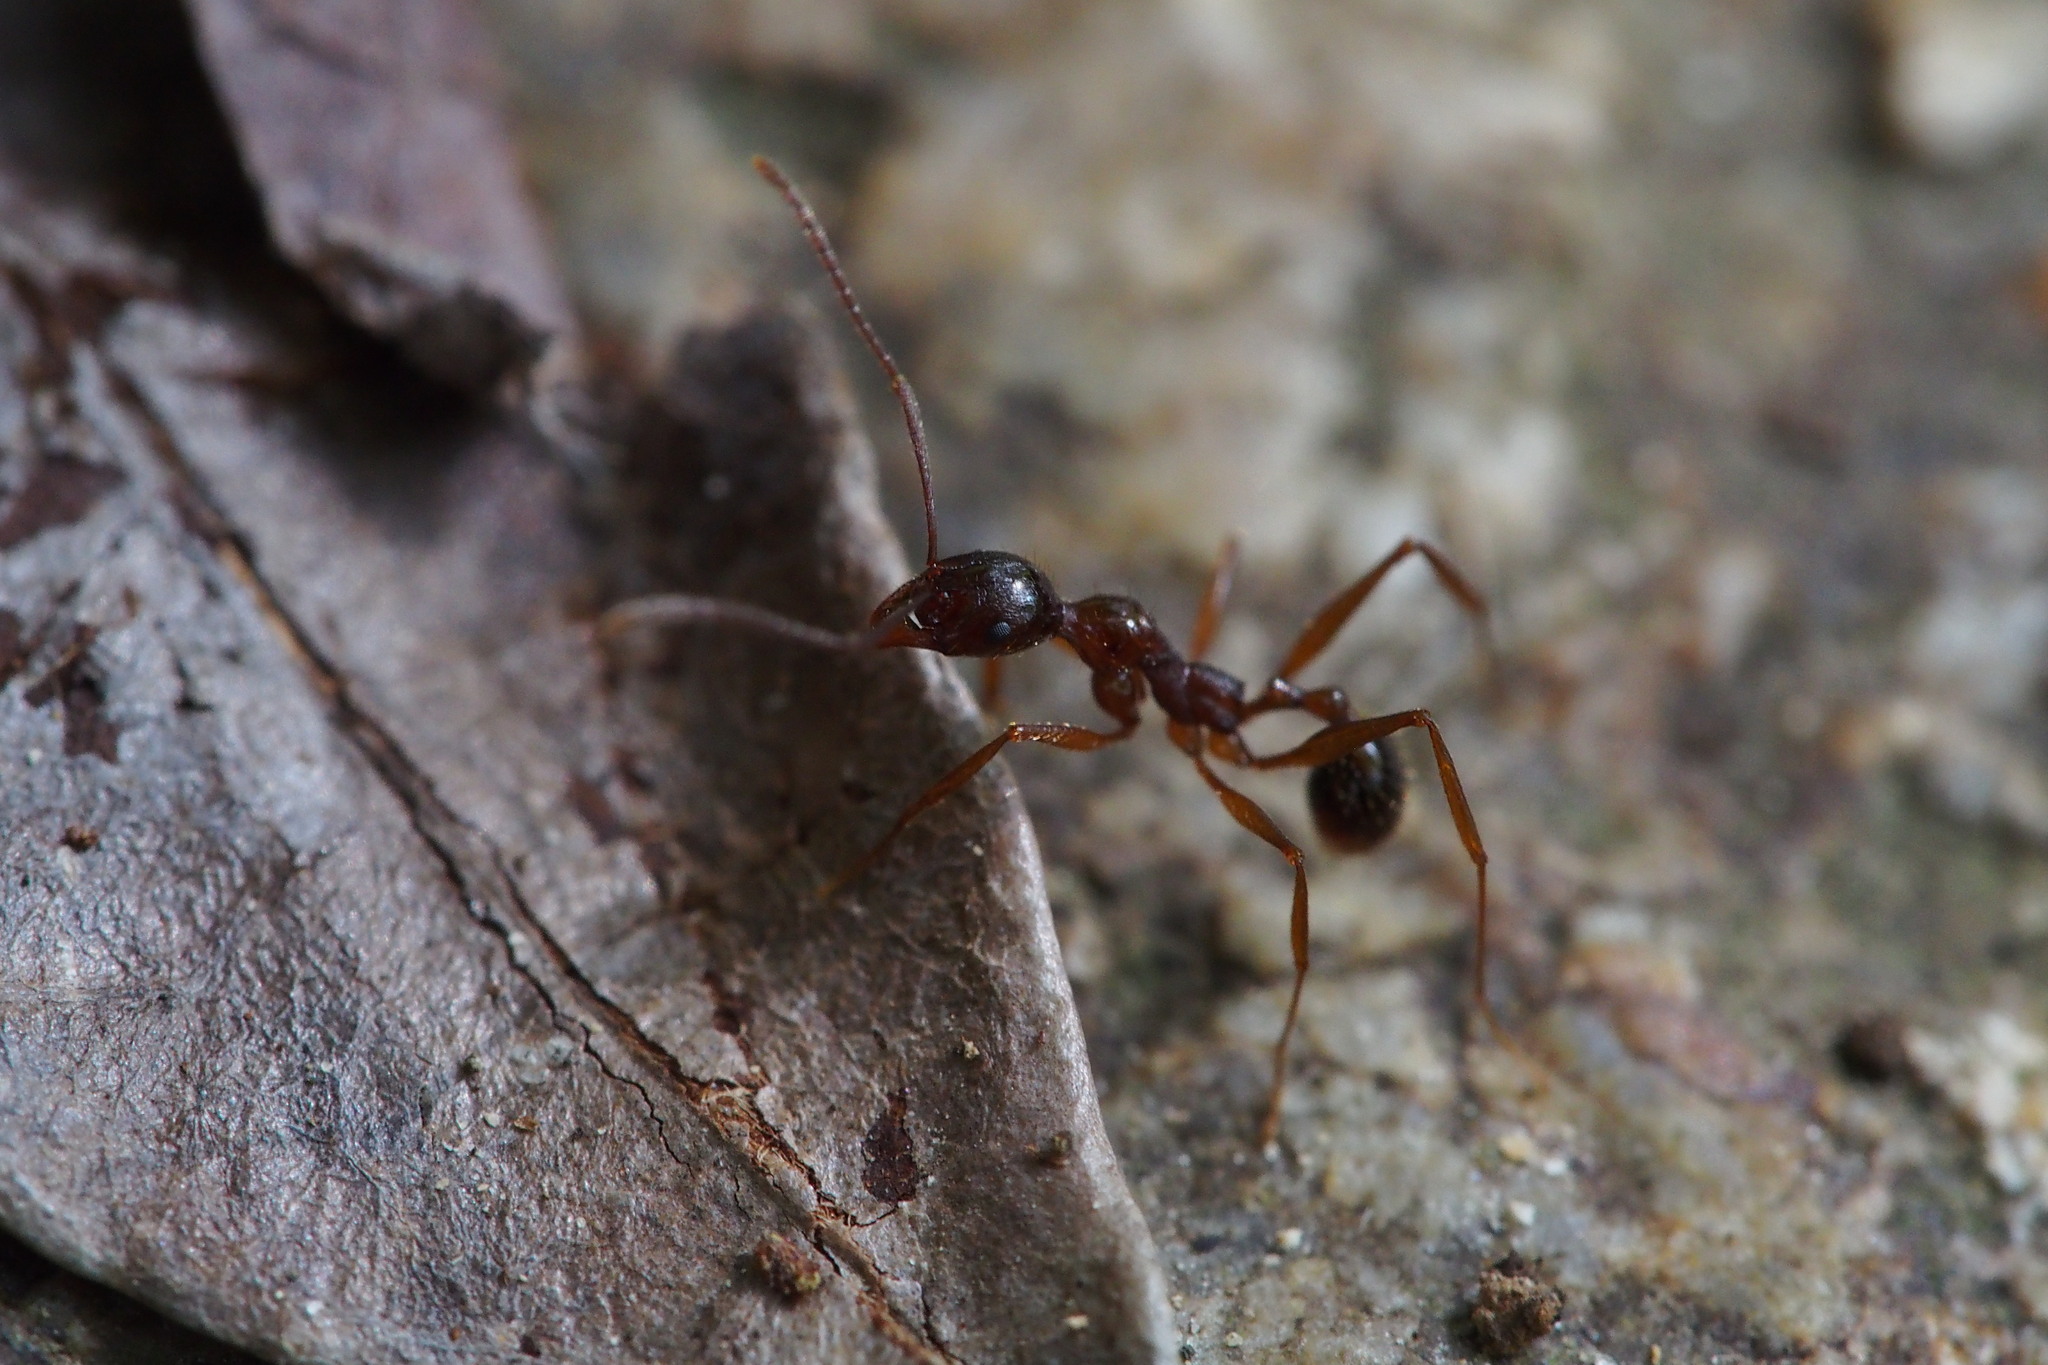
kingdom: Animalia
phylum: Arthropoda
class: Insecta
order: Hymenoptera
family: Formicidae
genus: Aphaenogaster
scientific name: Aphaenogaster famelica
